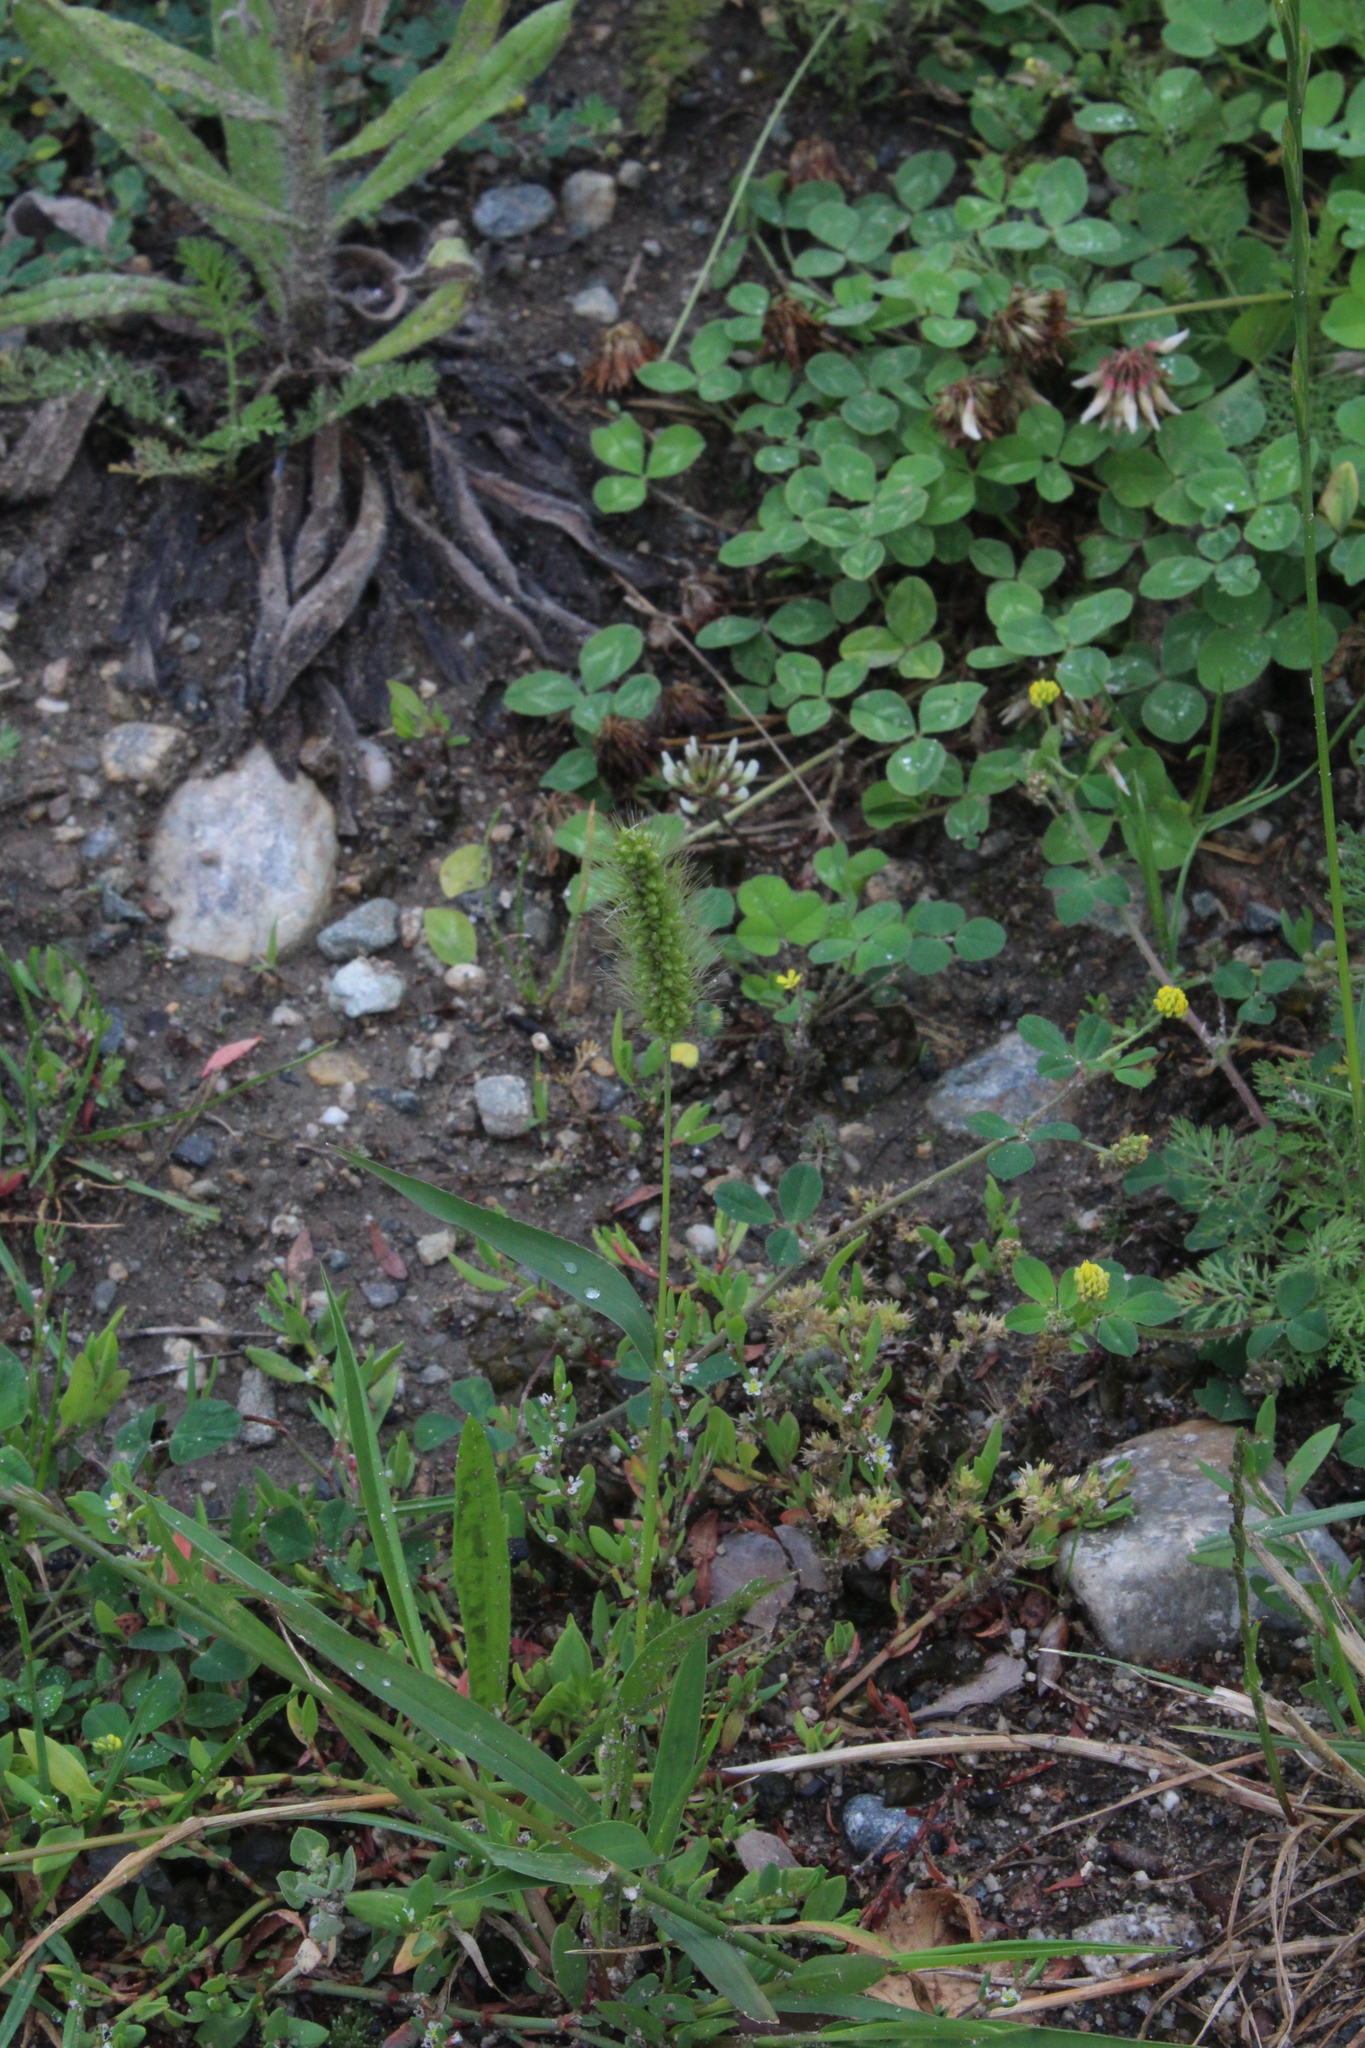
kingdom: Plantae
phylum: Tracheophyta
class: Liliopsida
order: Poales
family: Poaceae
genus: Setaria
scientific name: Setaria viridis
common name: Green bristlegrass
